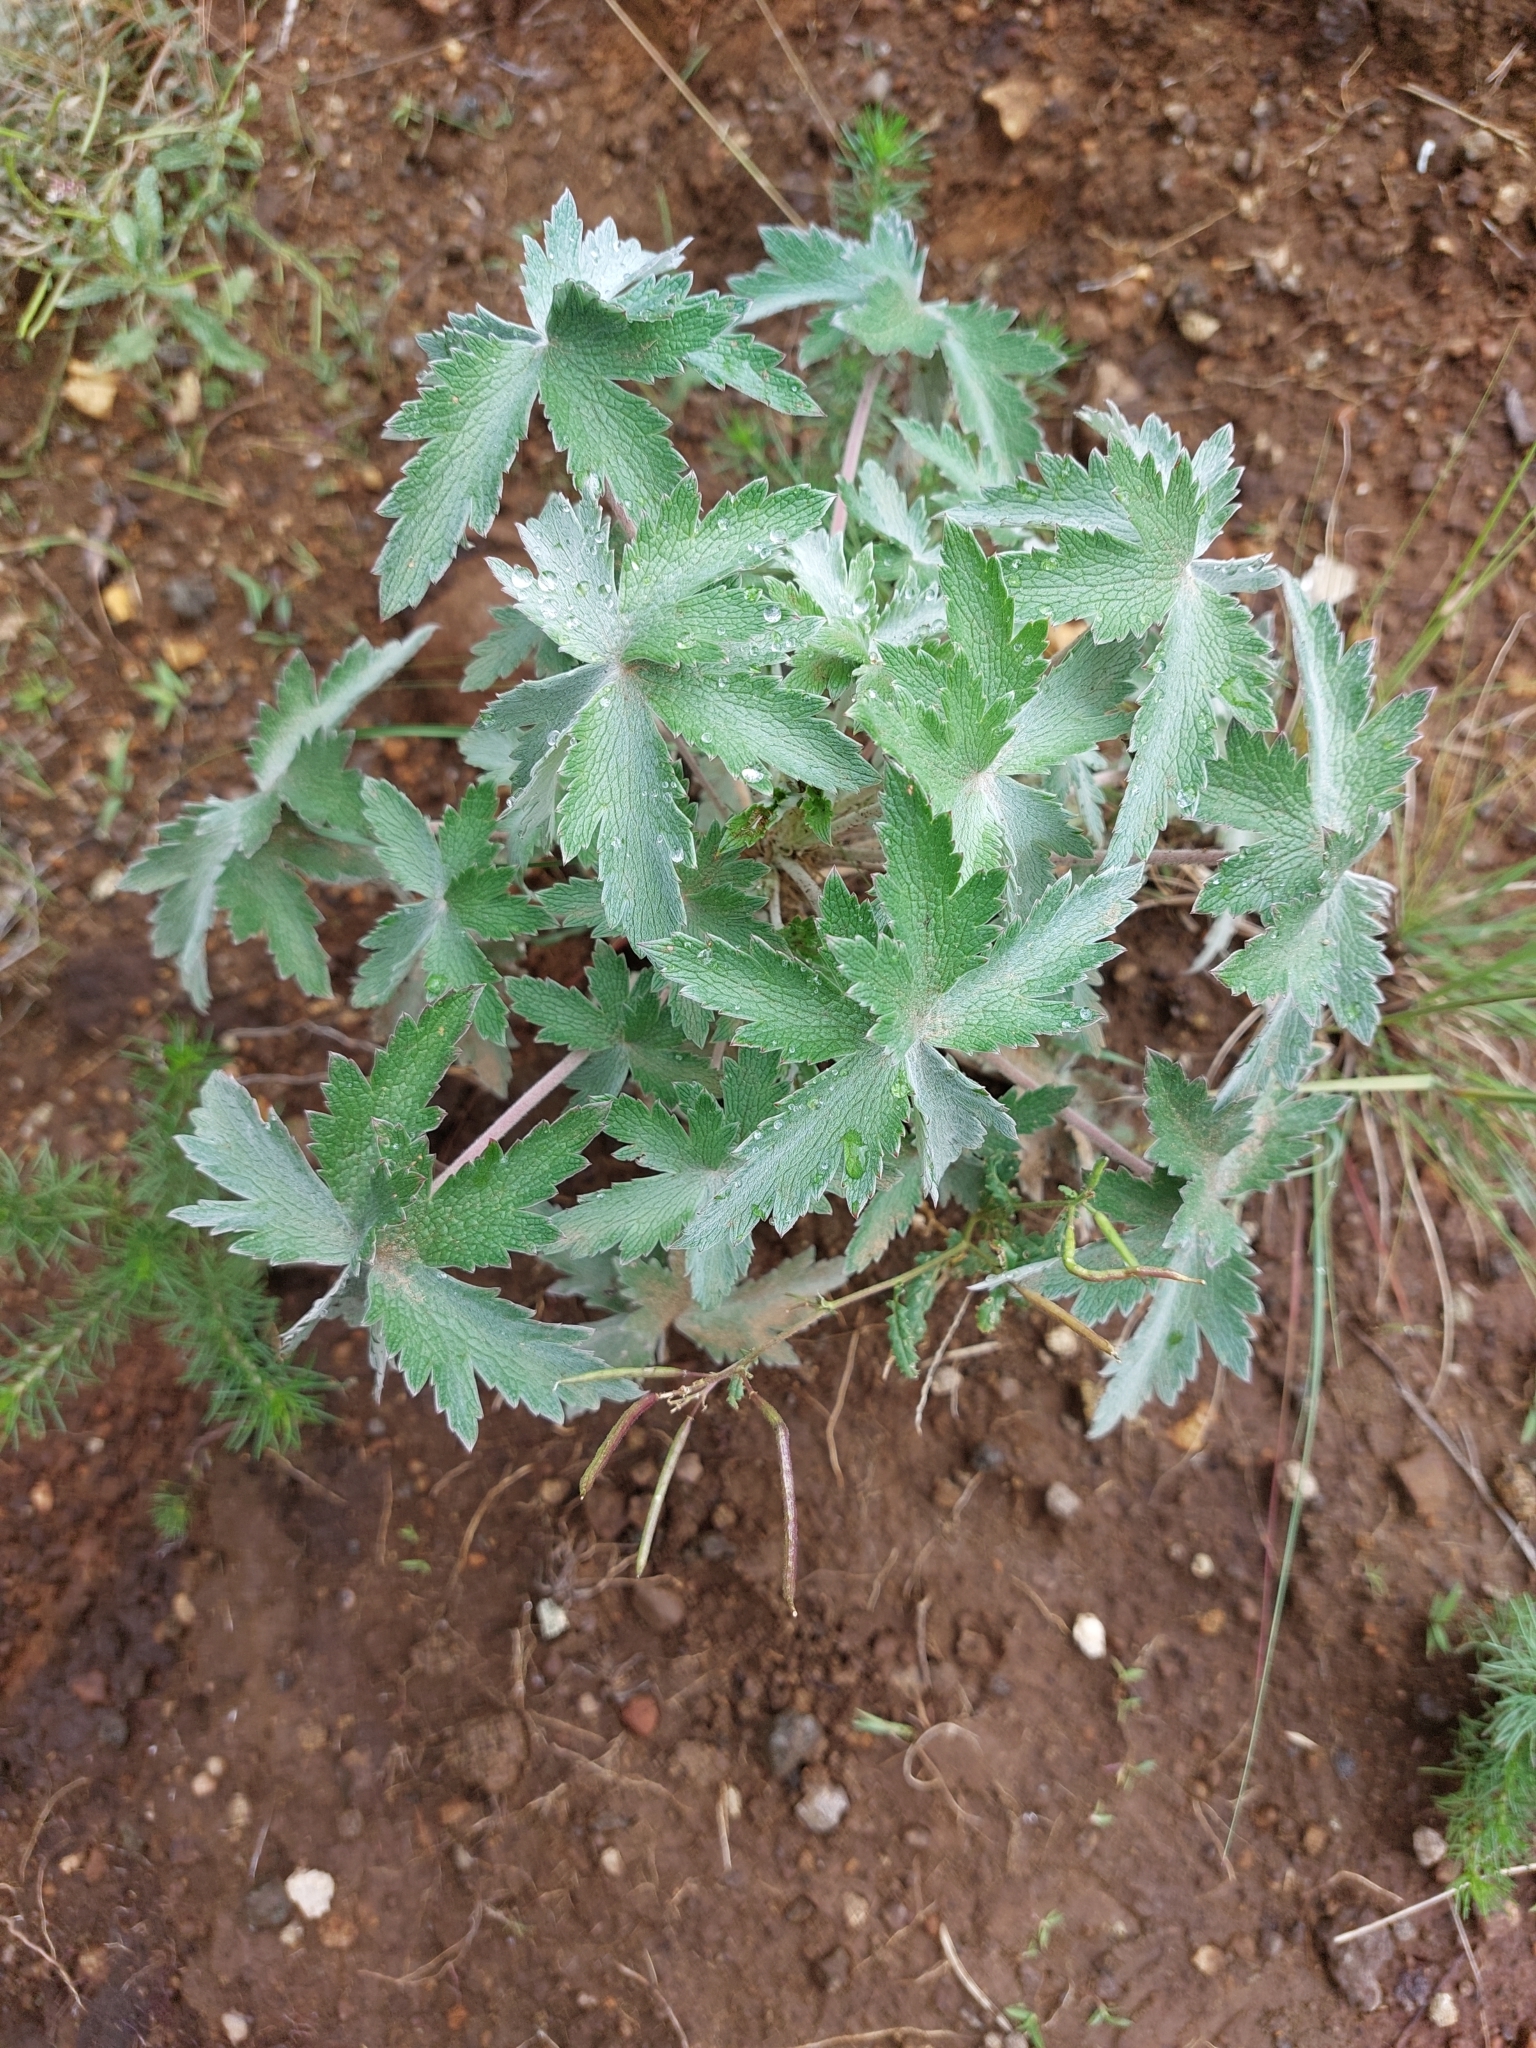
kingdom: Plantae
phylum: Tracheophyta
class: Magnoliopsida
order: Geraniales
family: Geraniaceae
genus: Geranium
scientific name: Geranium pulchrum
